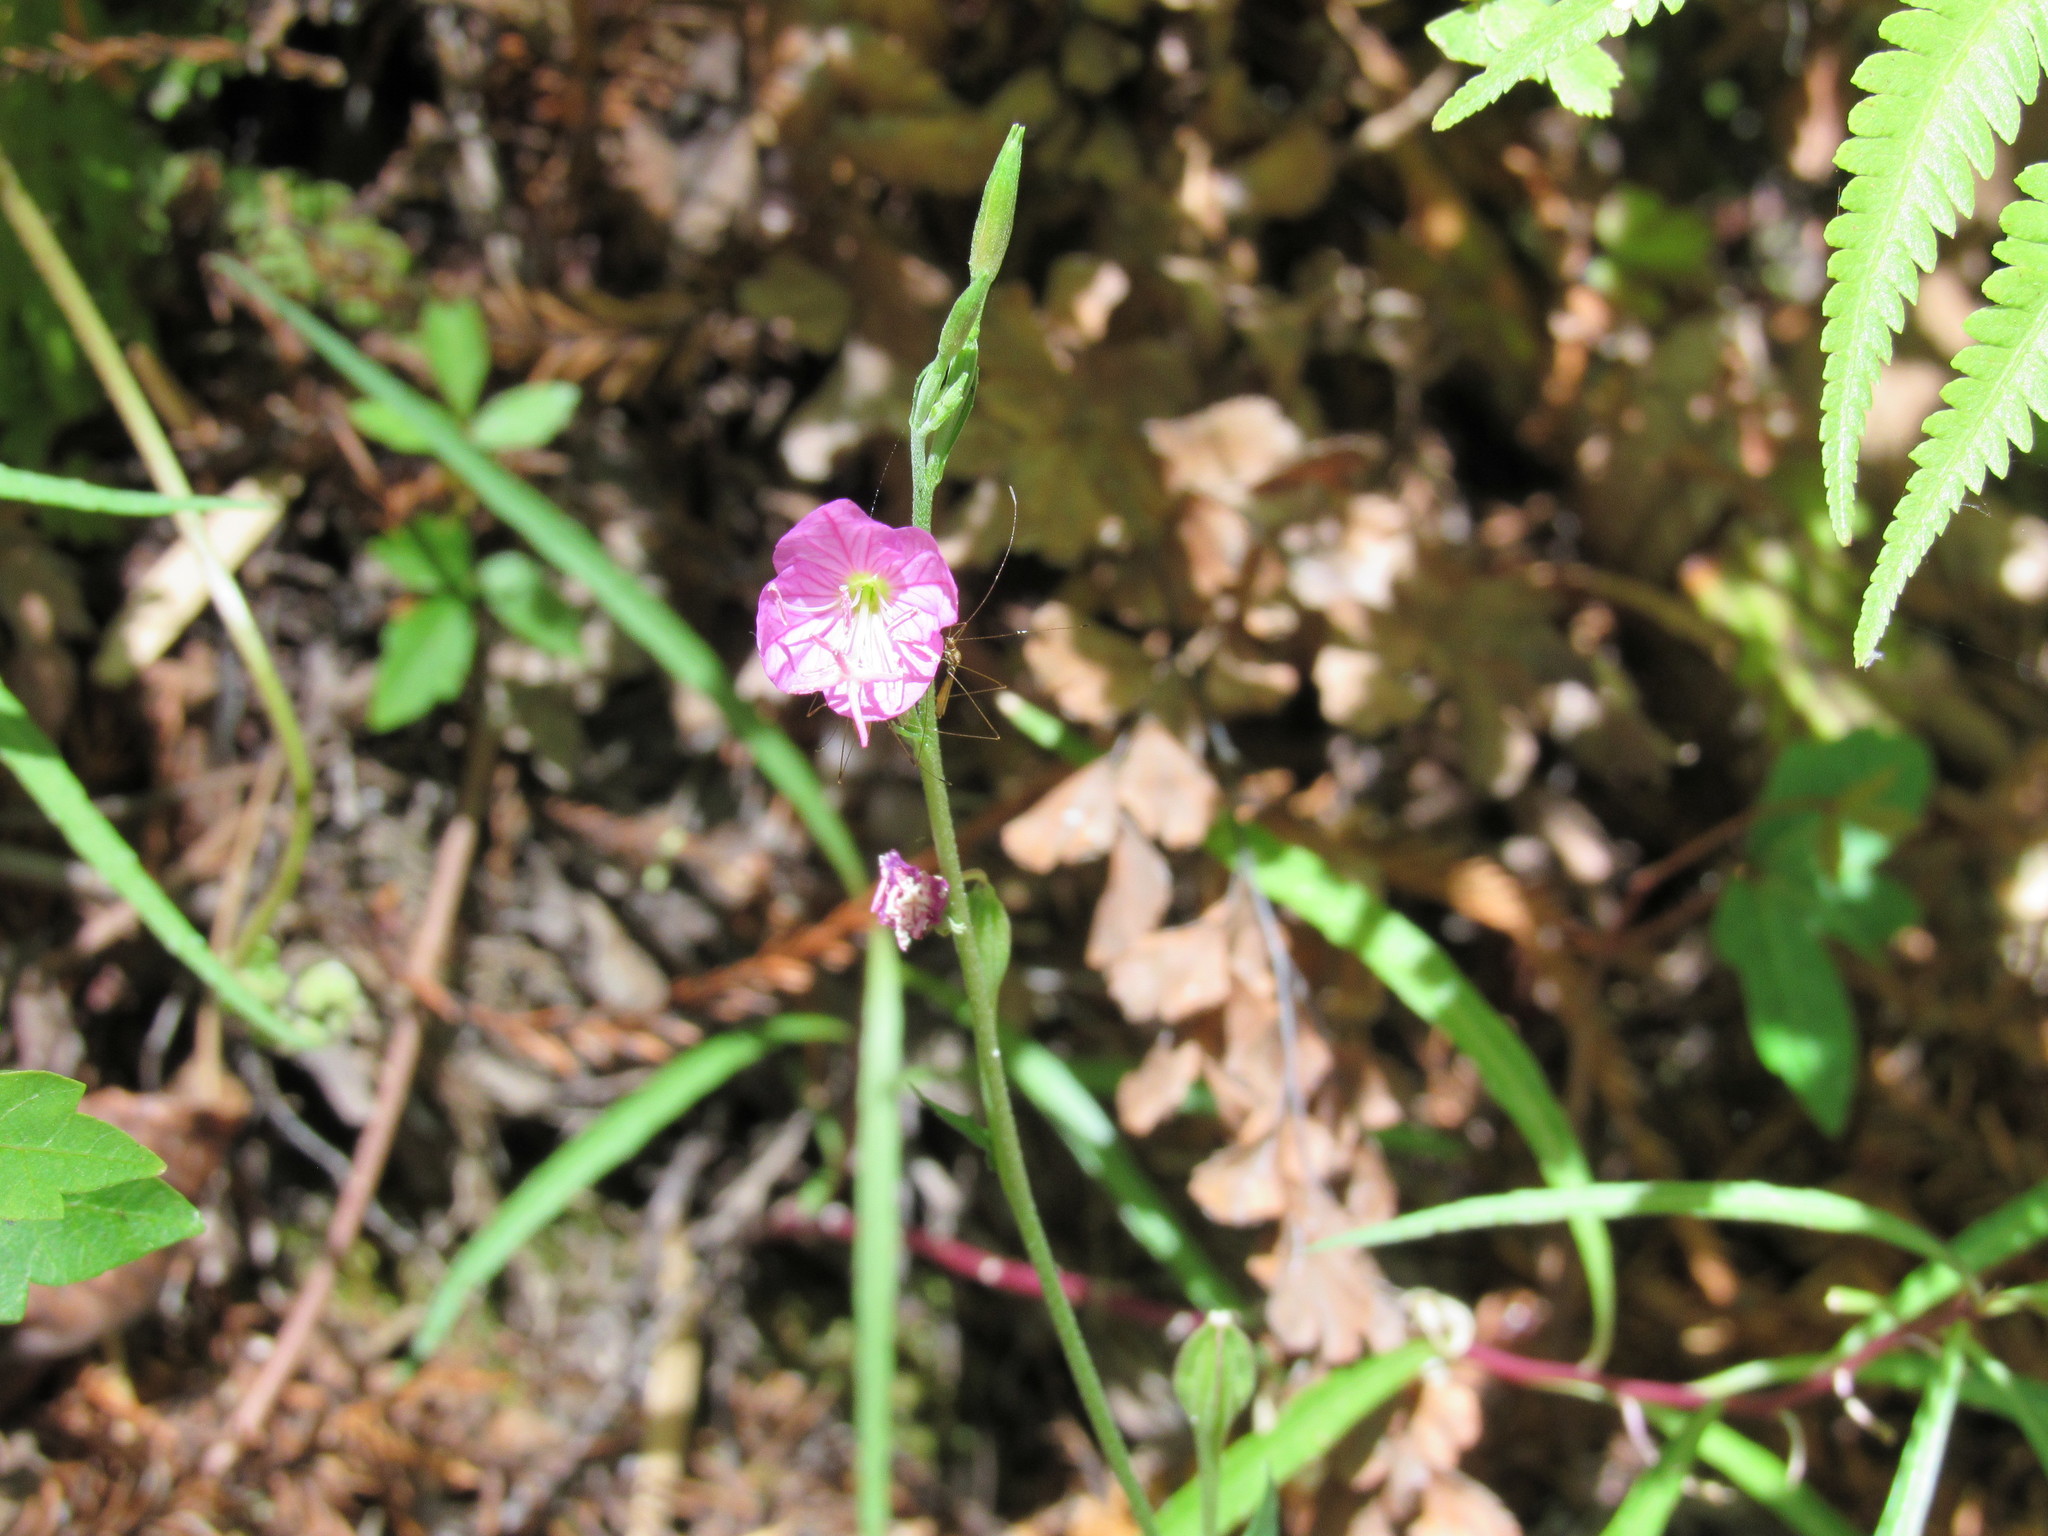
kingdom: Plantae
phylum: Tracheophyta
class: Magnoliopsida
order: Myrtales
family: Onagraceae
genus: Oenothera
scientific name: Oenothera rosea
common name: Rosy evening-primrose
